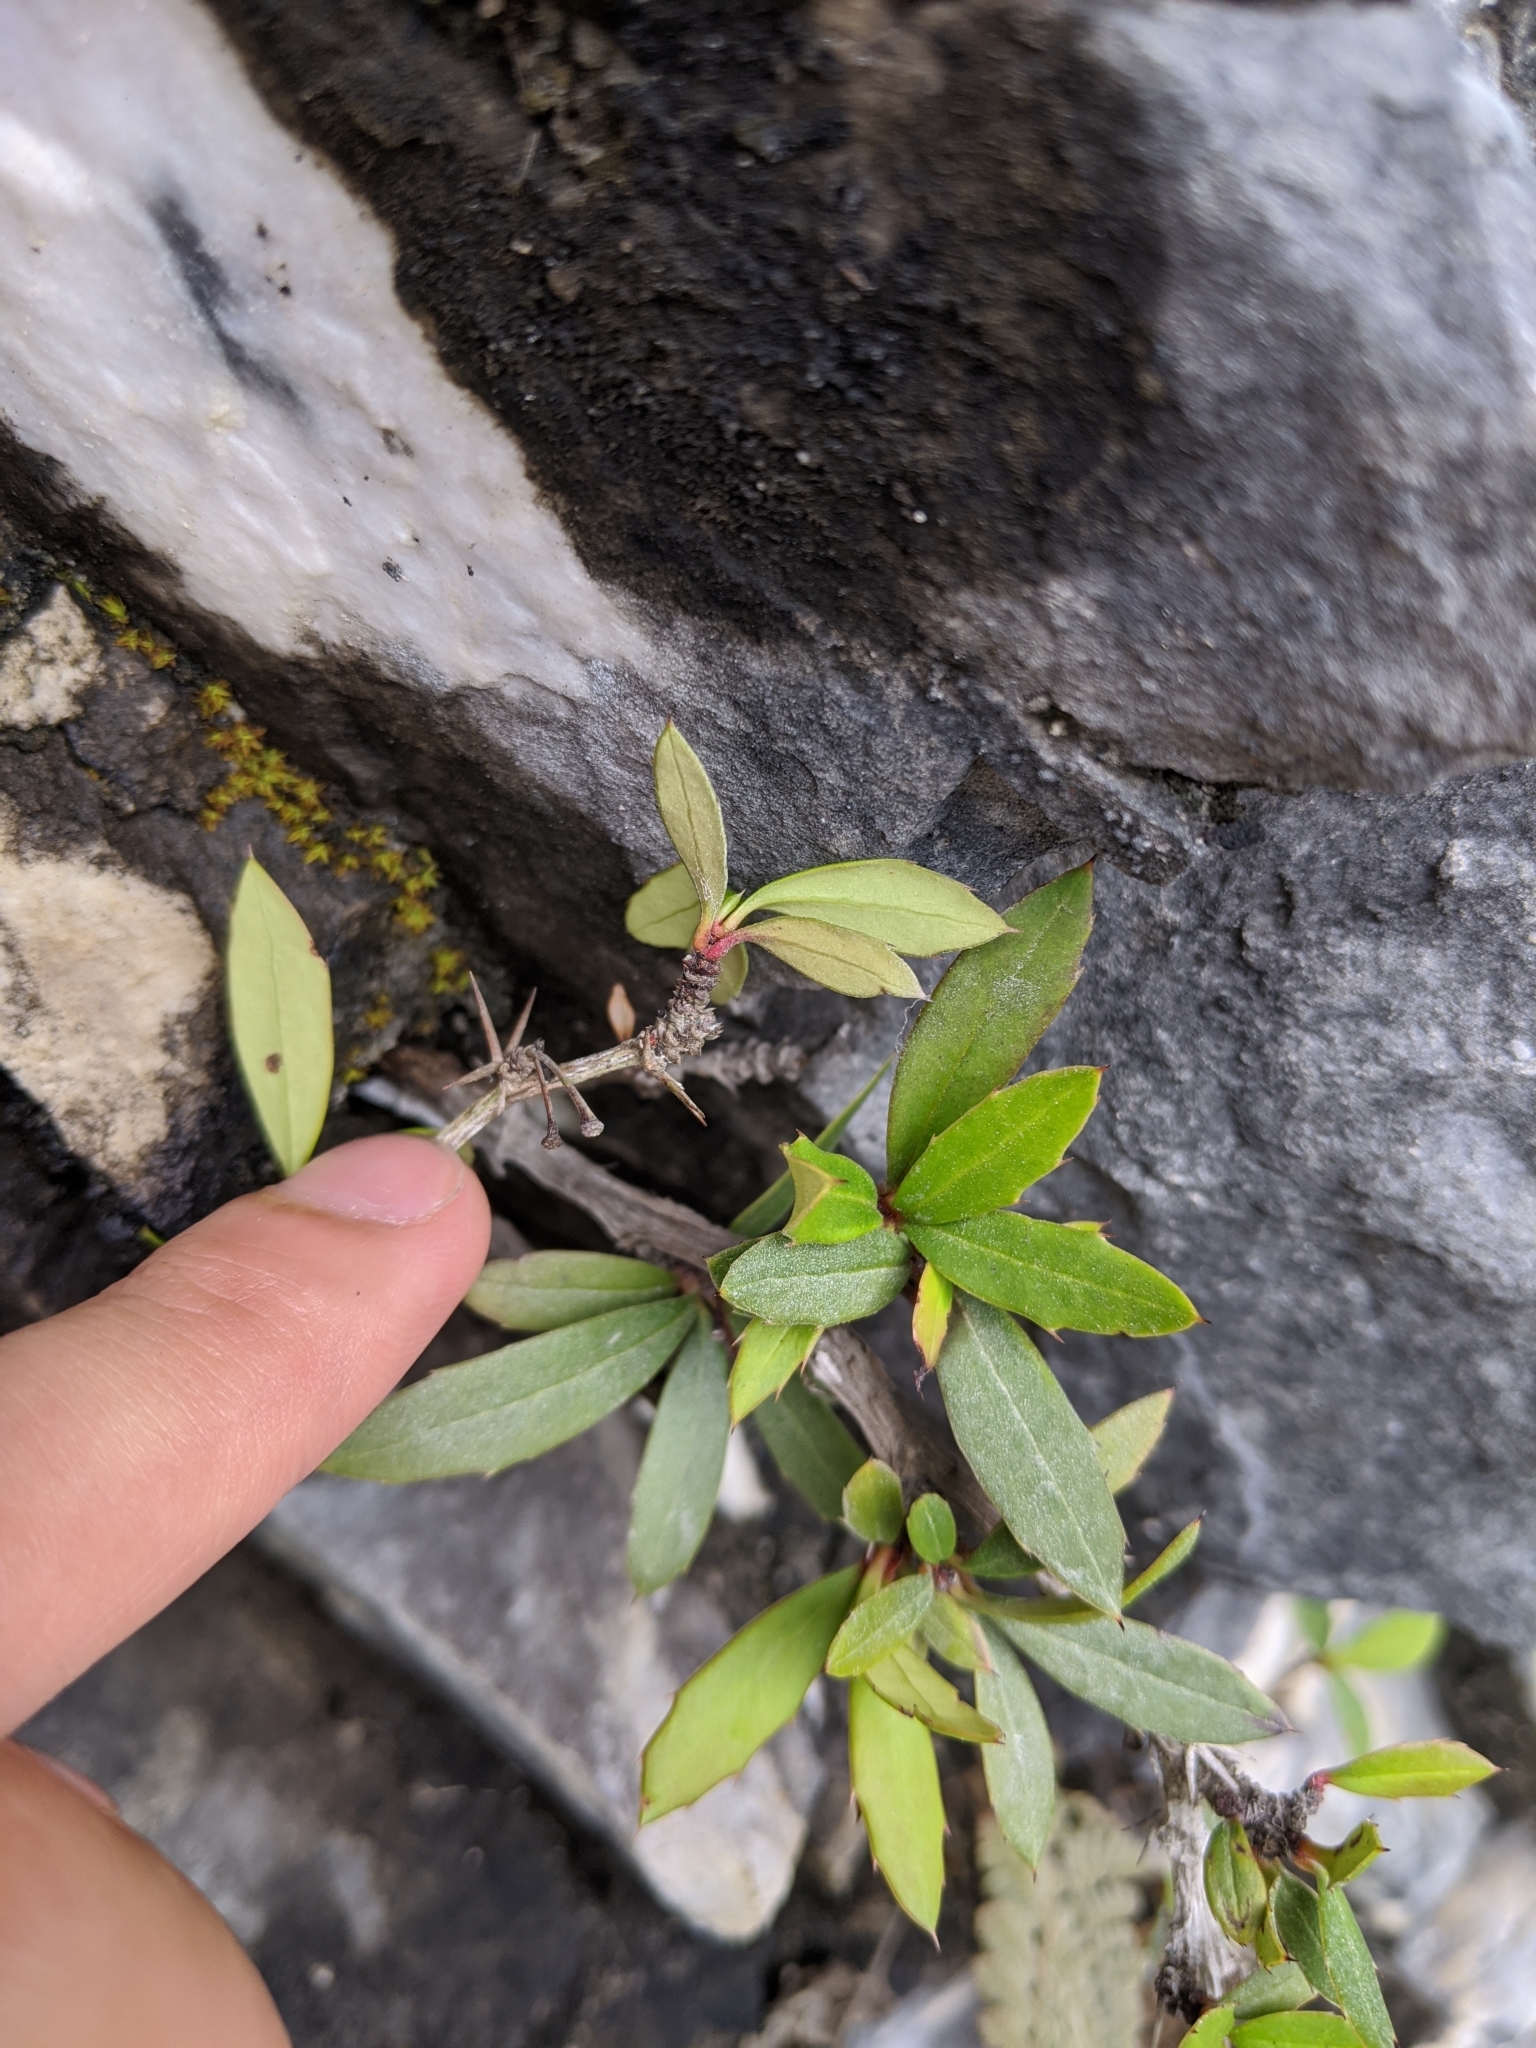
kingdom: Plantae
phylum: Tracheophyta
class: Magnoliopsida
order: Ranunculales
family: Berberidaceae
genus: Berberis
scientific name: Berberis tarokoensis
